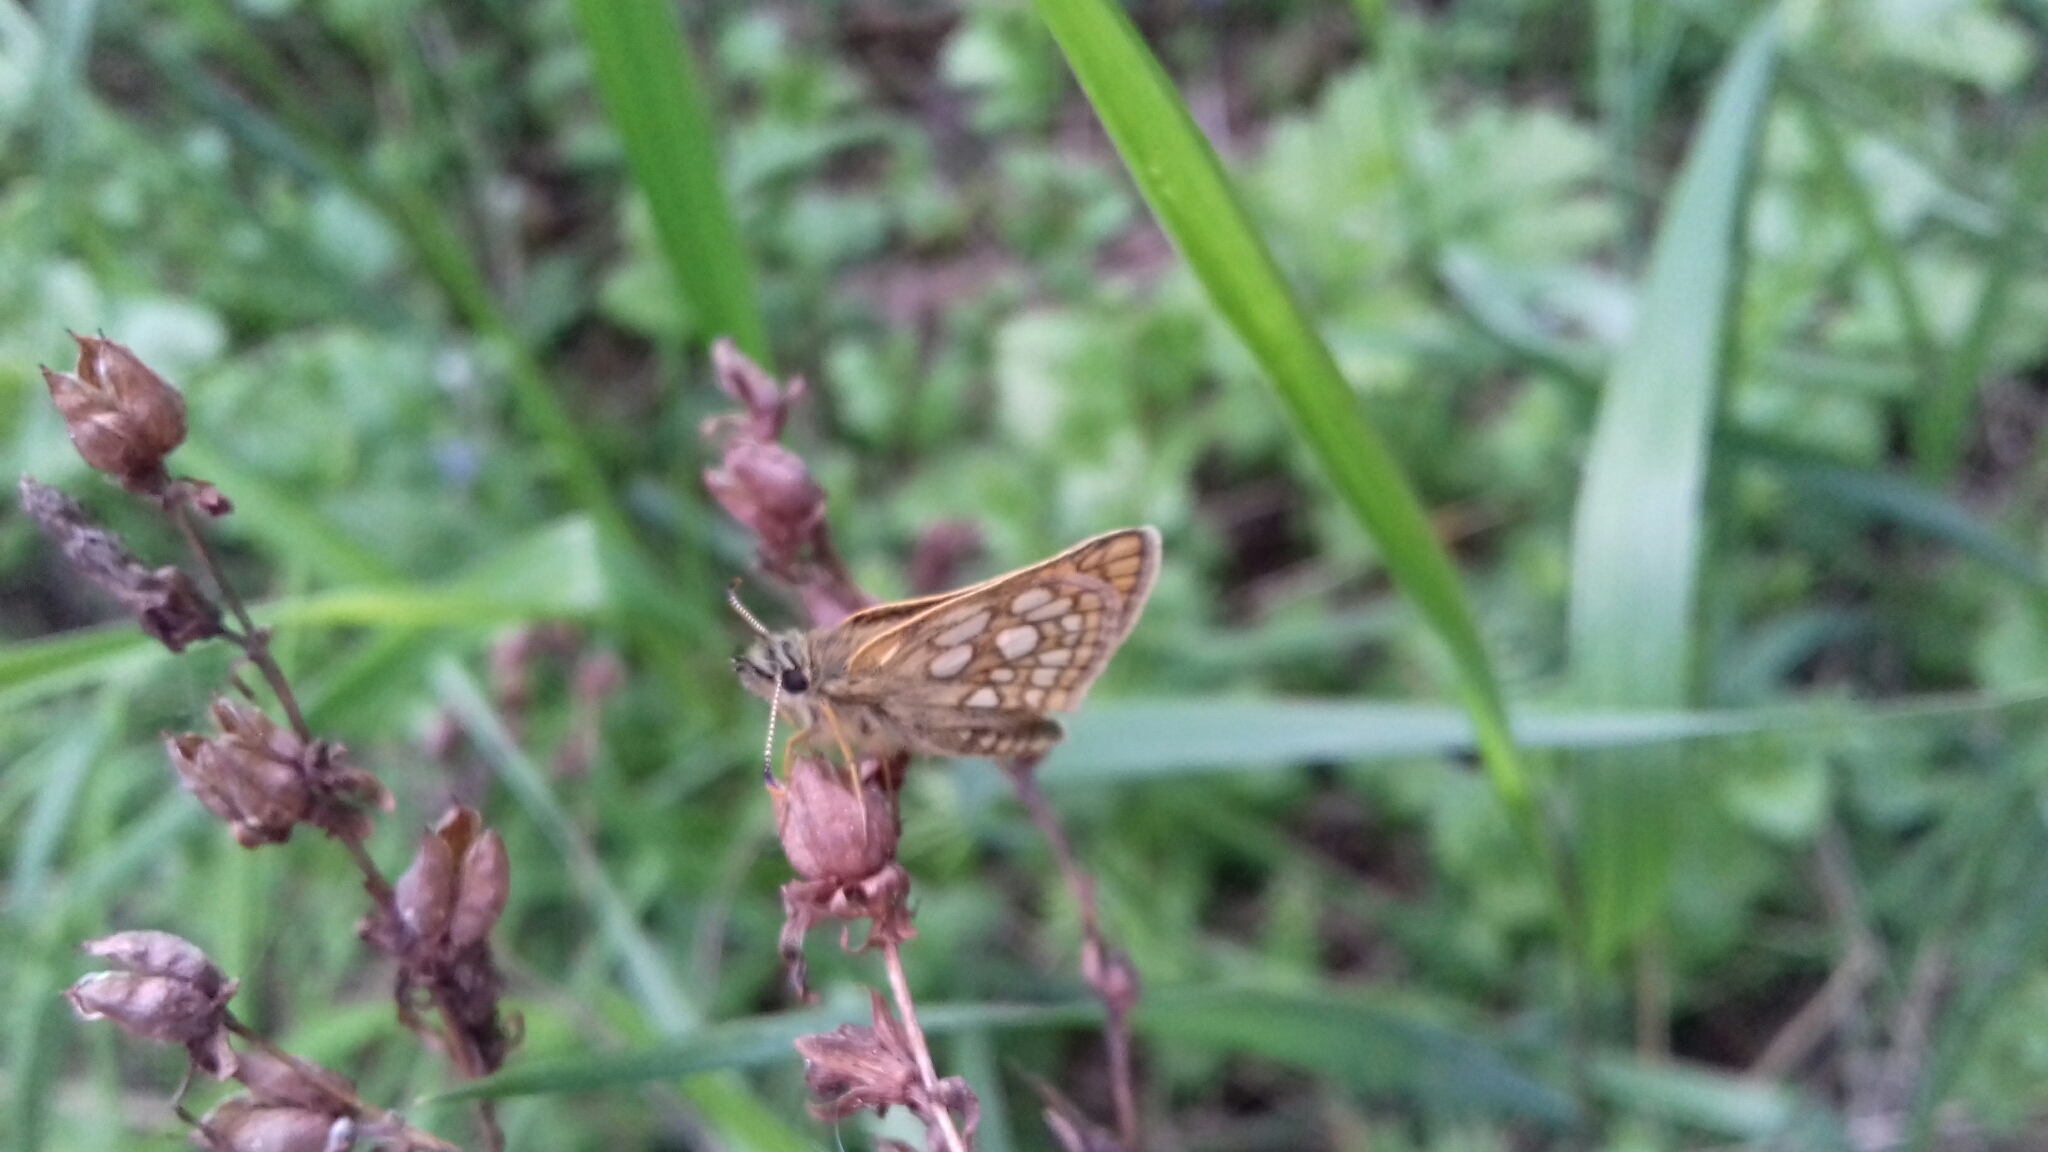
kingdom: Animalia
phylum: Arthropoda
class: Insecta
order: Lepidoptera
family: Hesperiidae
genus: Carterocephalus
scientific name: Carterocephalus palaemon
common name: Chequered skipper
